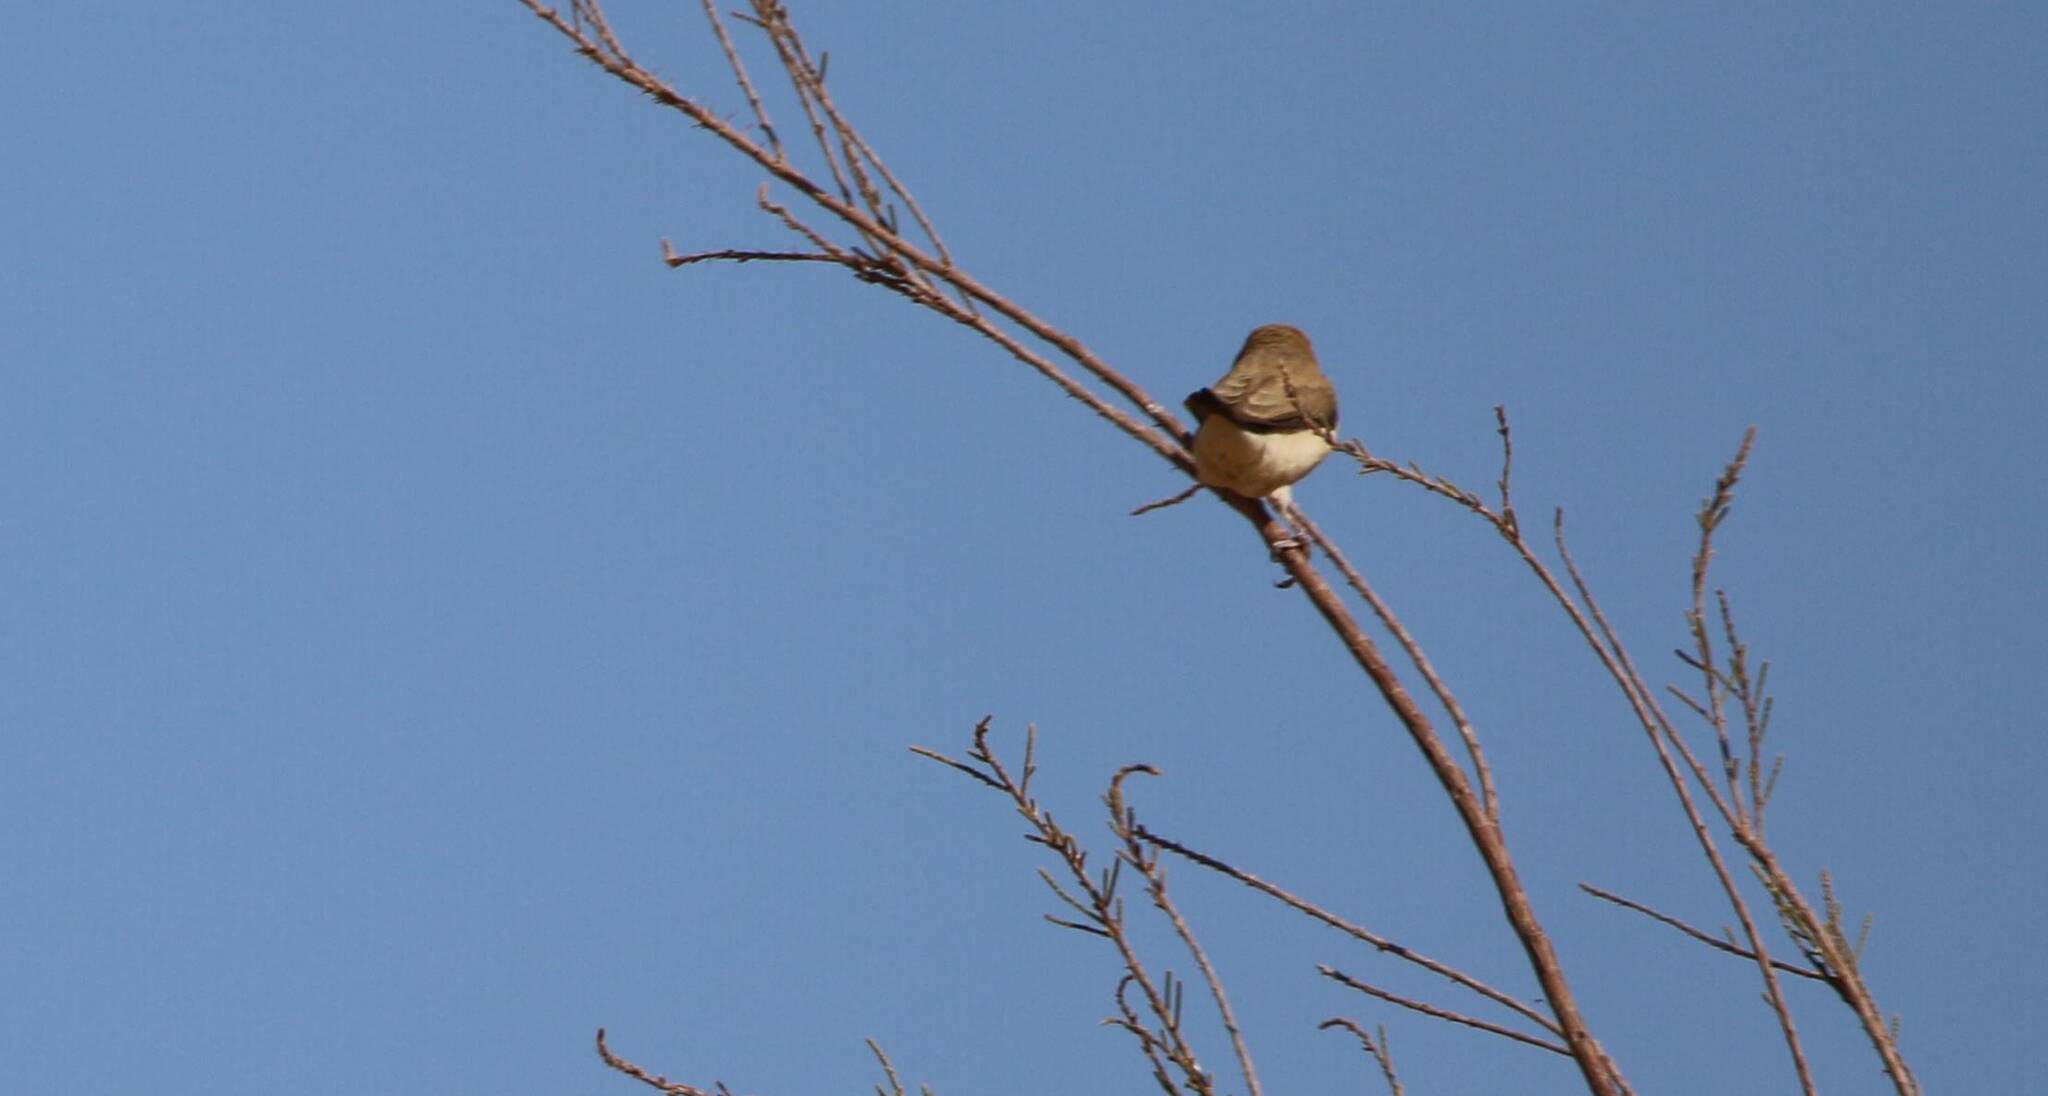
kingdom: Animalia
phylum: Chordata
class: Aves
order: Passeriformes
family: Estrildidae
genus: Euodice
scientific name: Euodice cantans
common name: African silverbill
